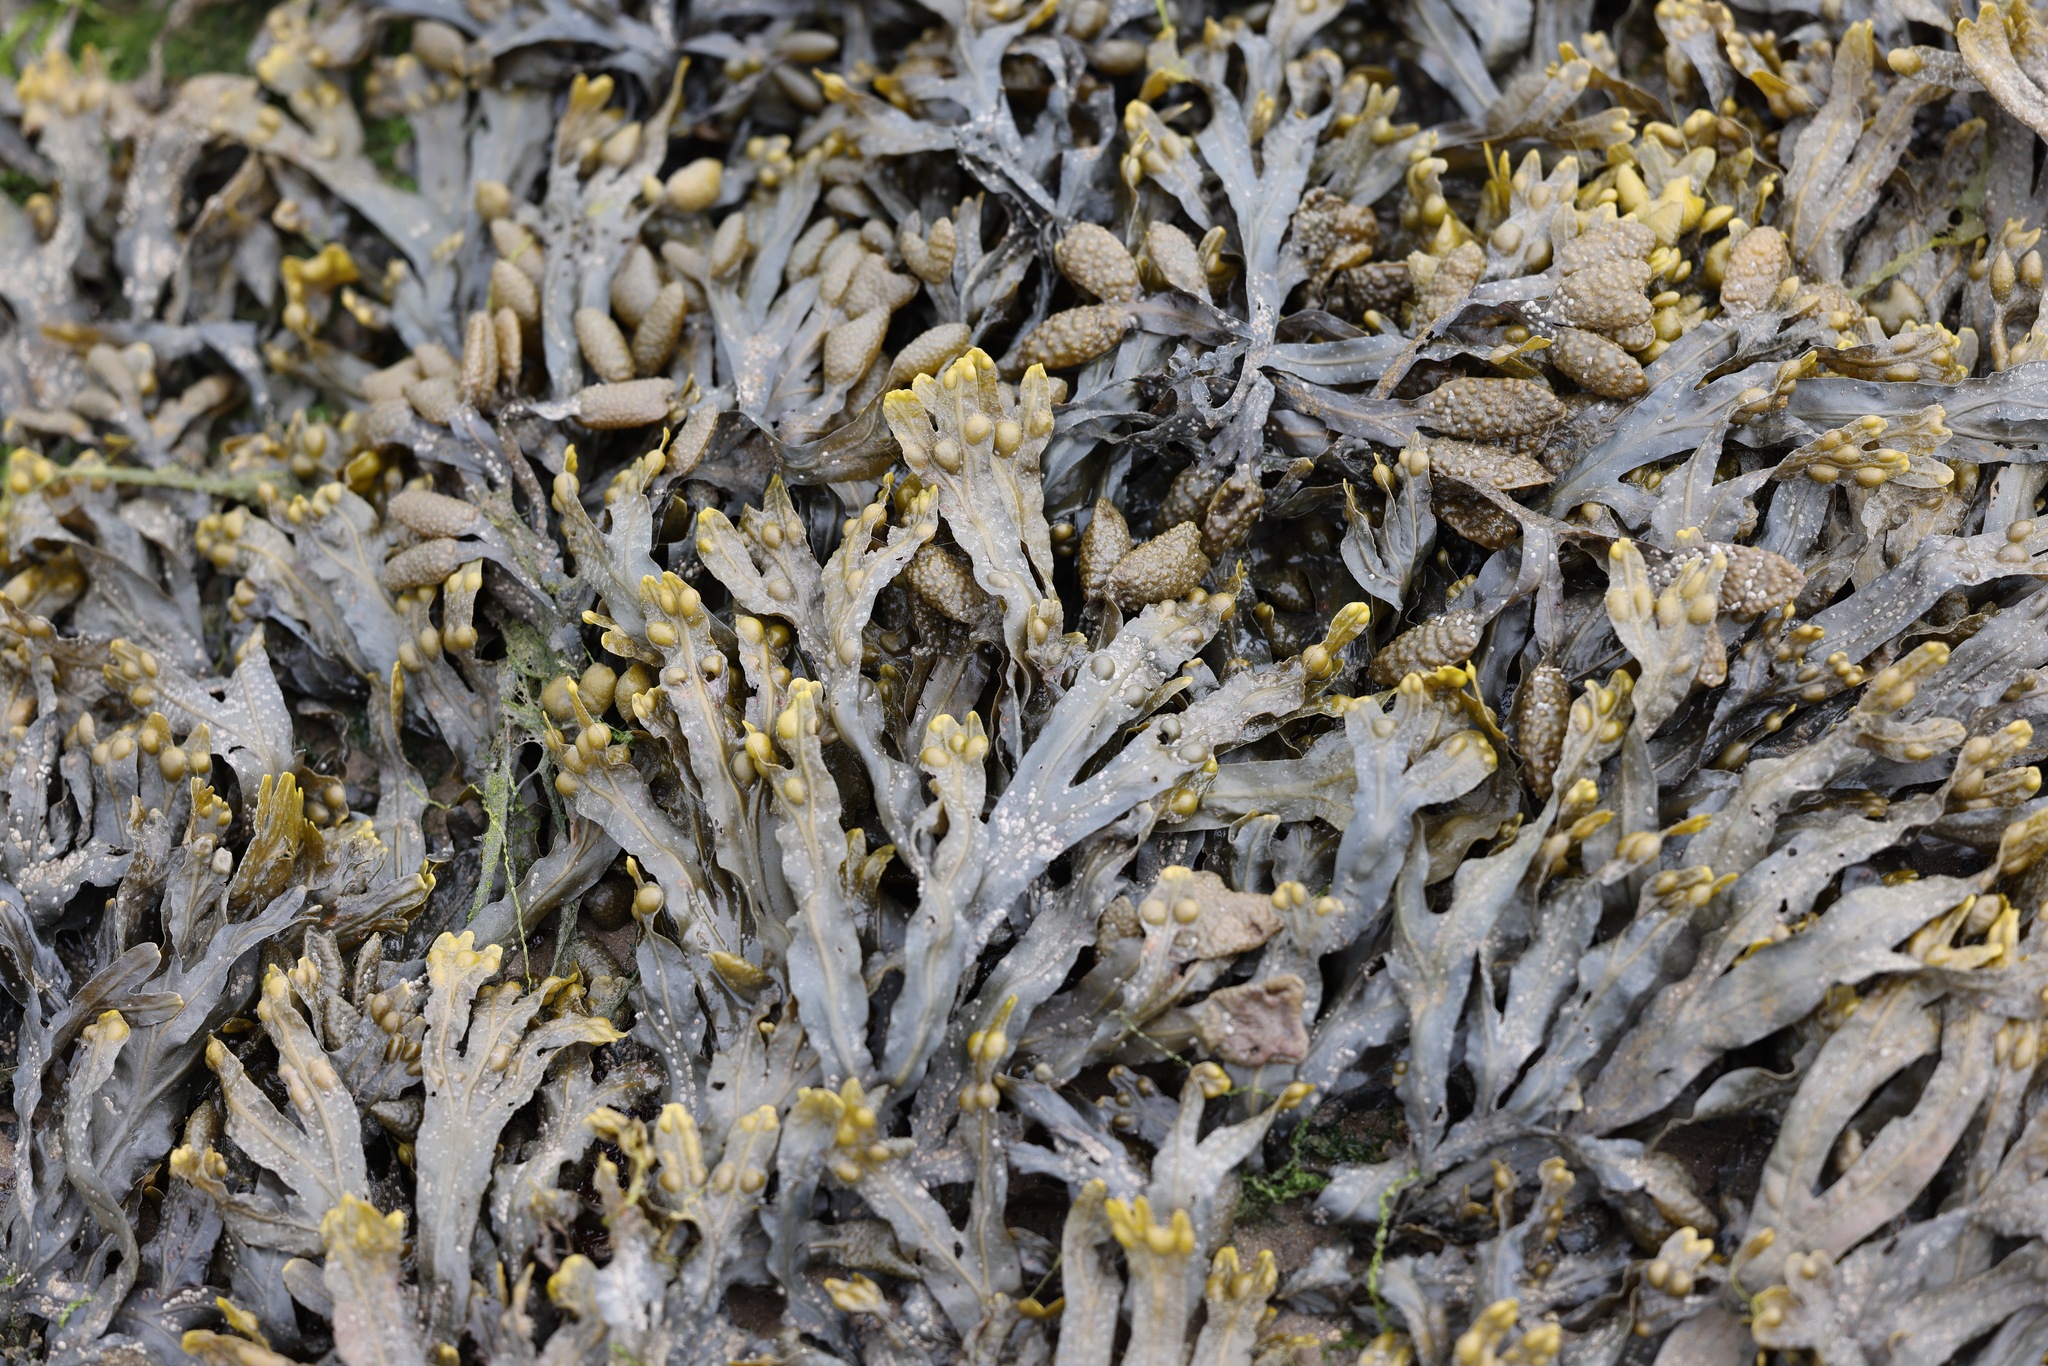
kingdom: Chromista
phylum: Ochrophyta
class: Phaeophyceae
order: Fucales
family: Fucaceae
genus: Fucus
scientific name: Fucus vesiculosus
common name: Bladder wrack
